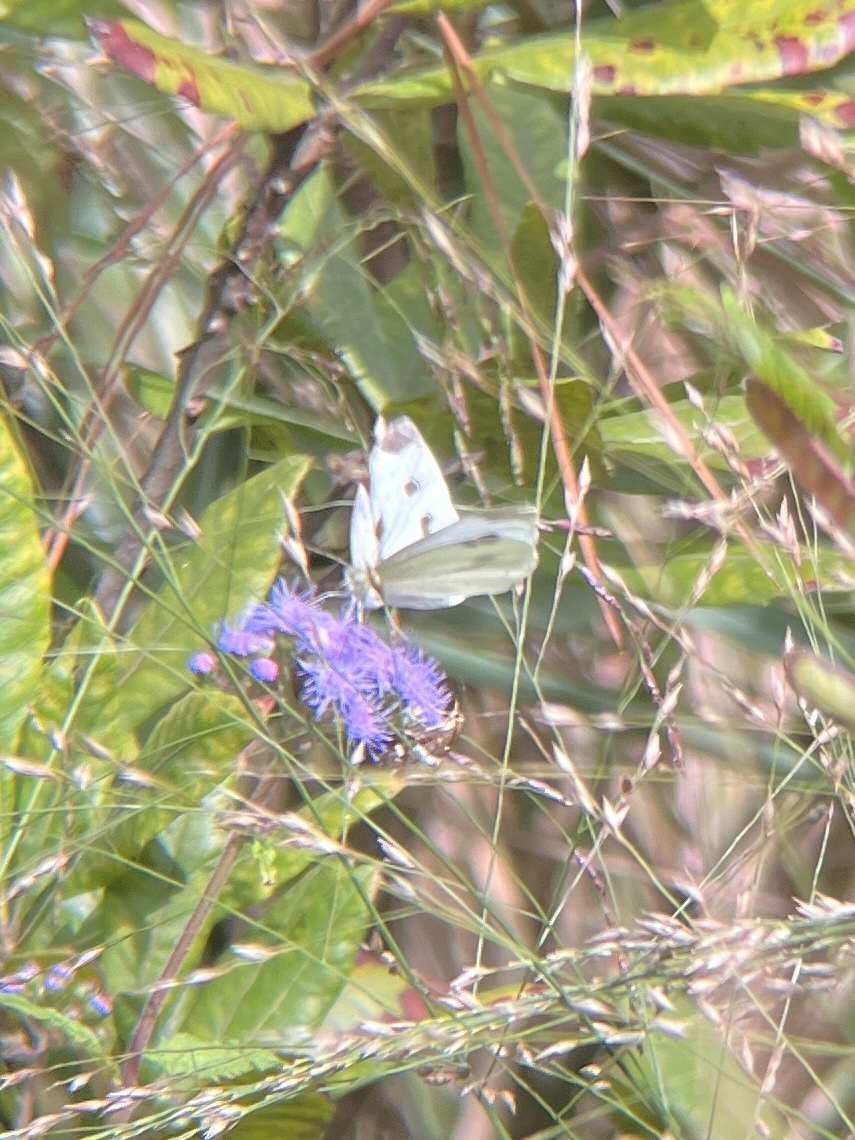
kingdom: Animalia
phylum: Arthropoda
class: Insecta
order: Lepidoptera
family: Pieridae
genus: Pieris
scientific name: Pieris rapae
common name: Small white
